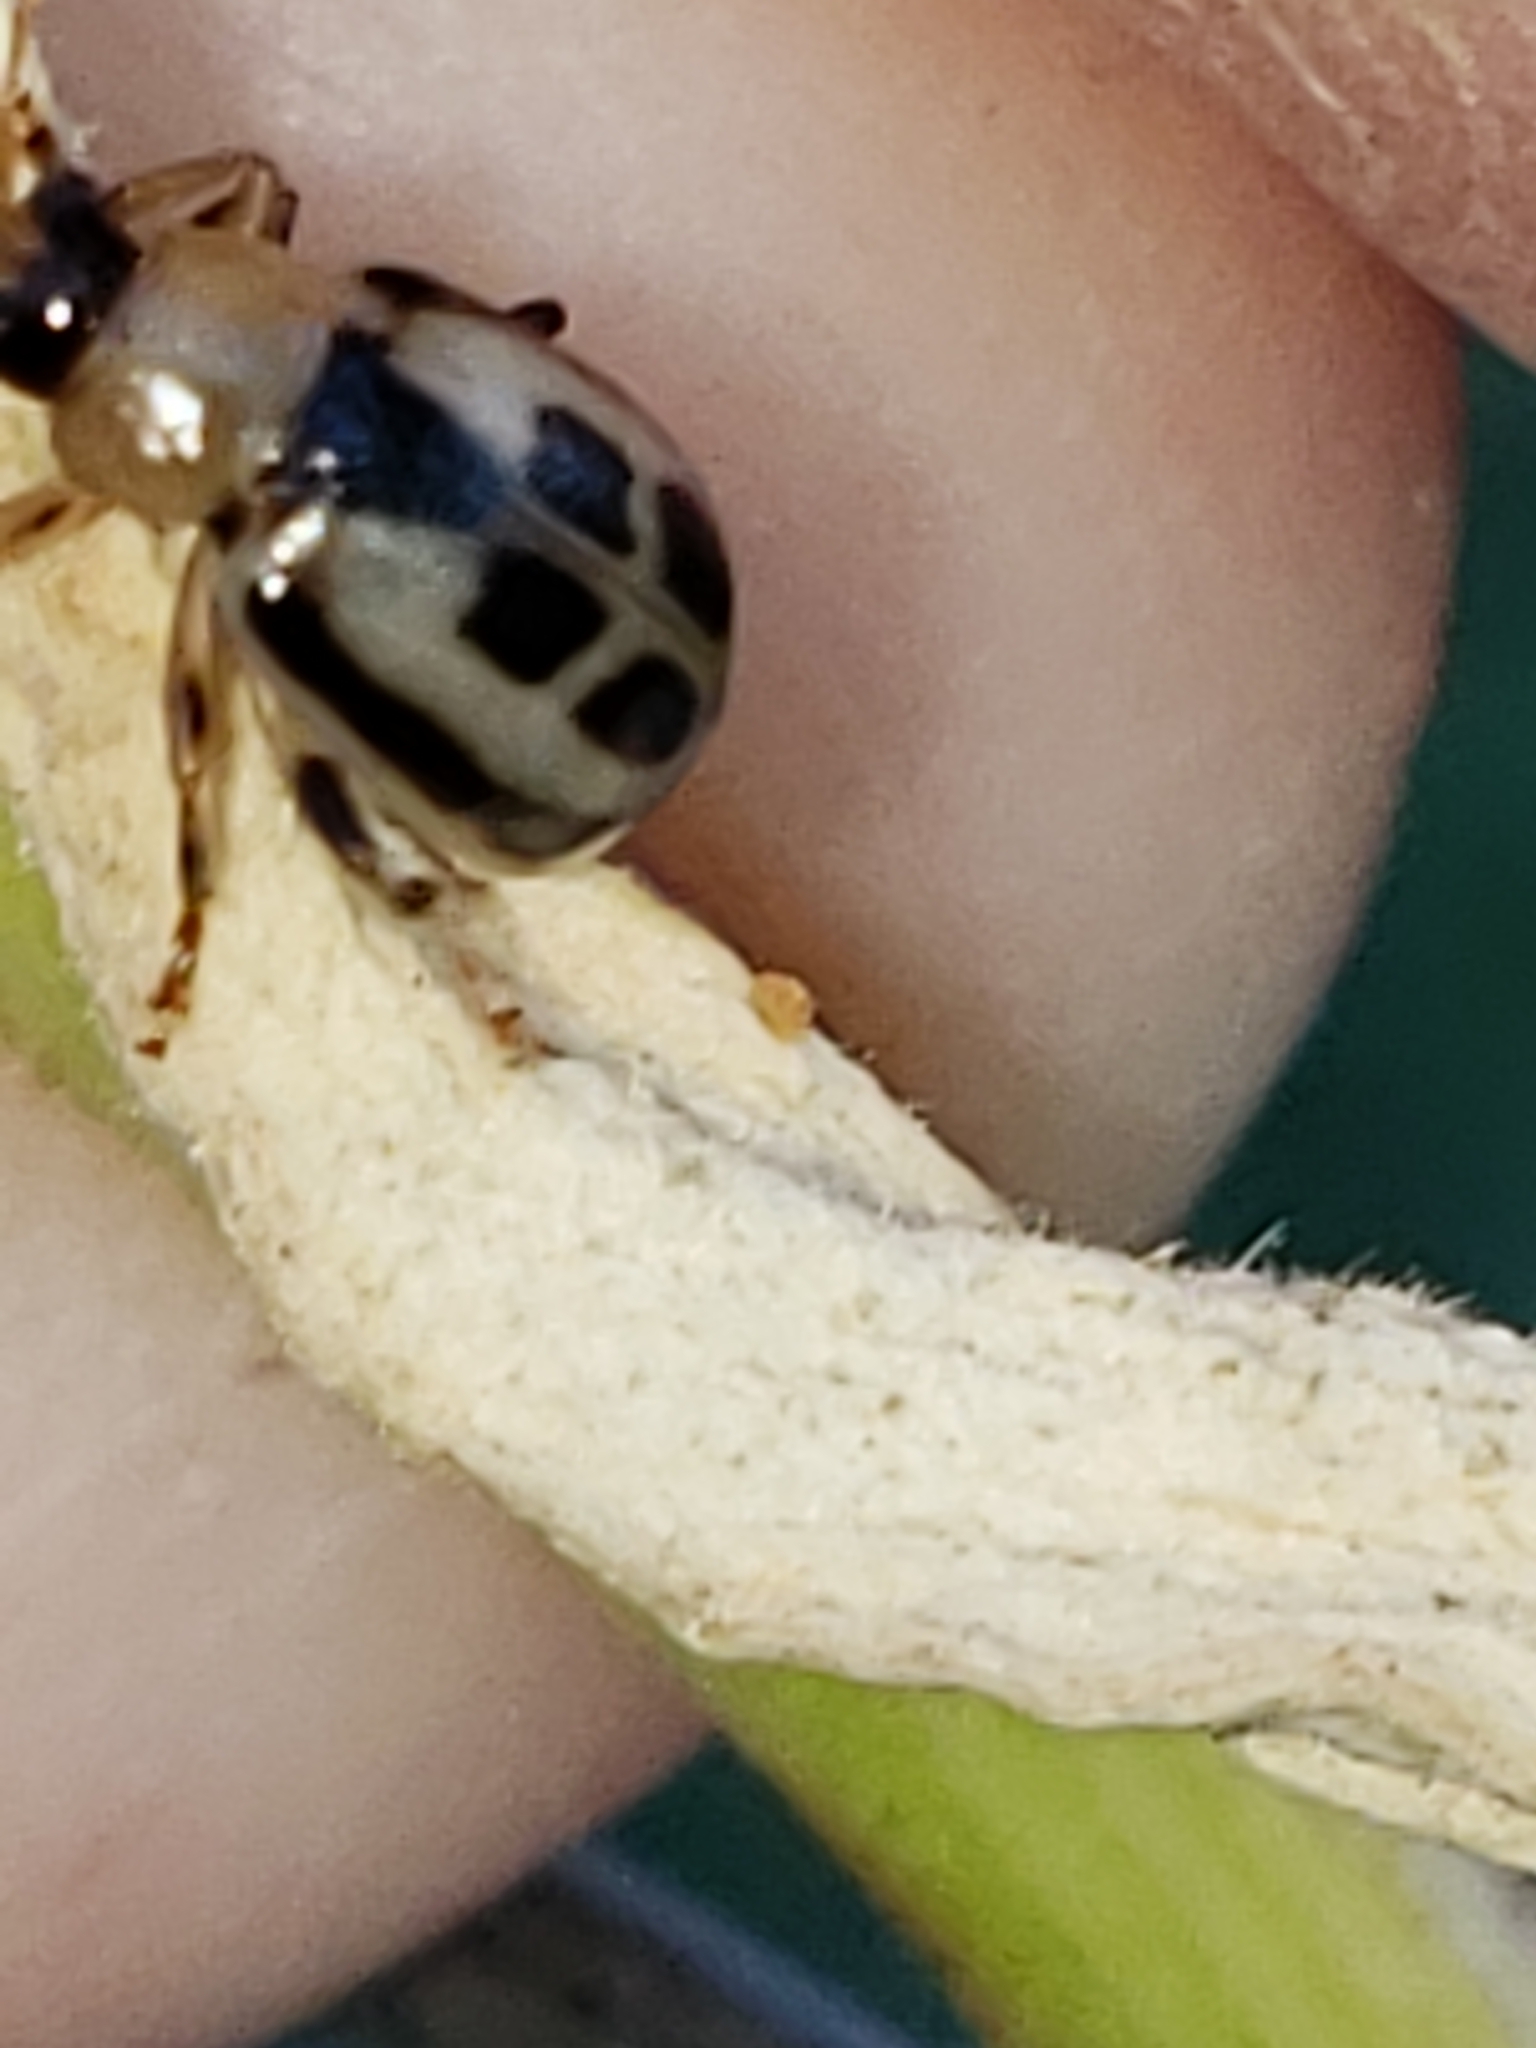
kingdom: Animalia
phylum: Arthropoda
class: Insecta
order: Coleoptera
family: Chrysomelidae
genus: Cerotoma
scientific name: Cerotoma trifurcata
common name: Bean leaf beetle
